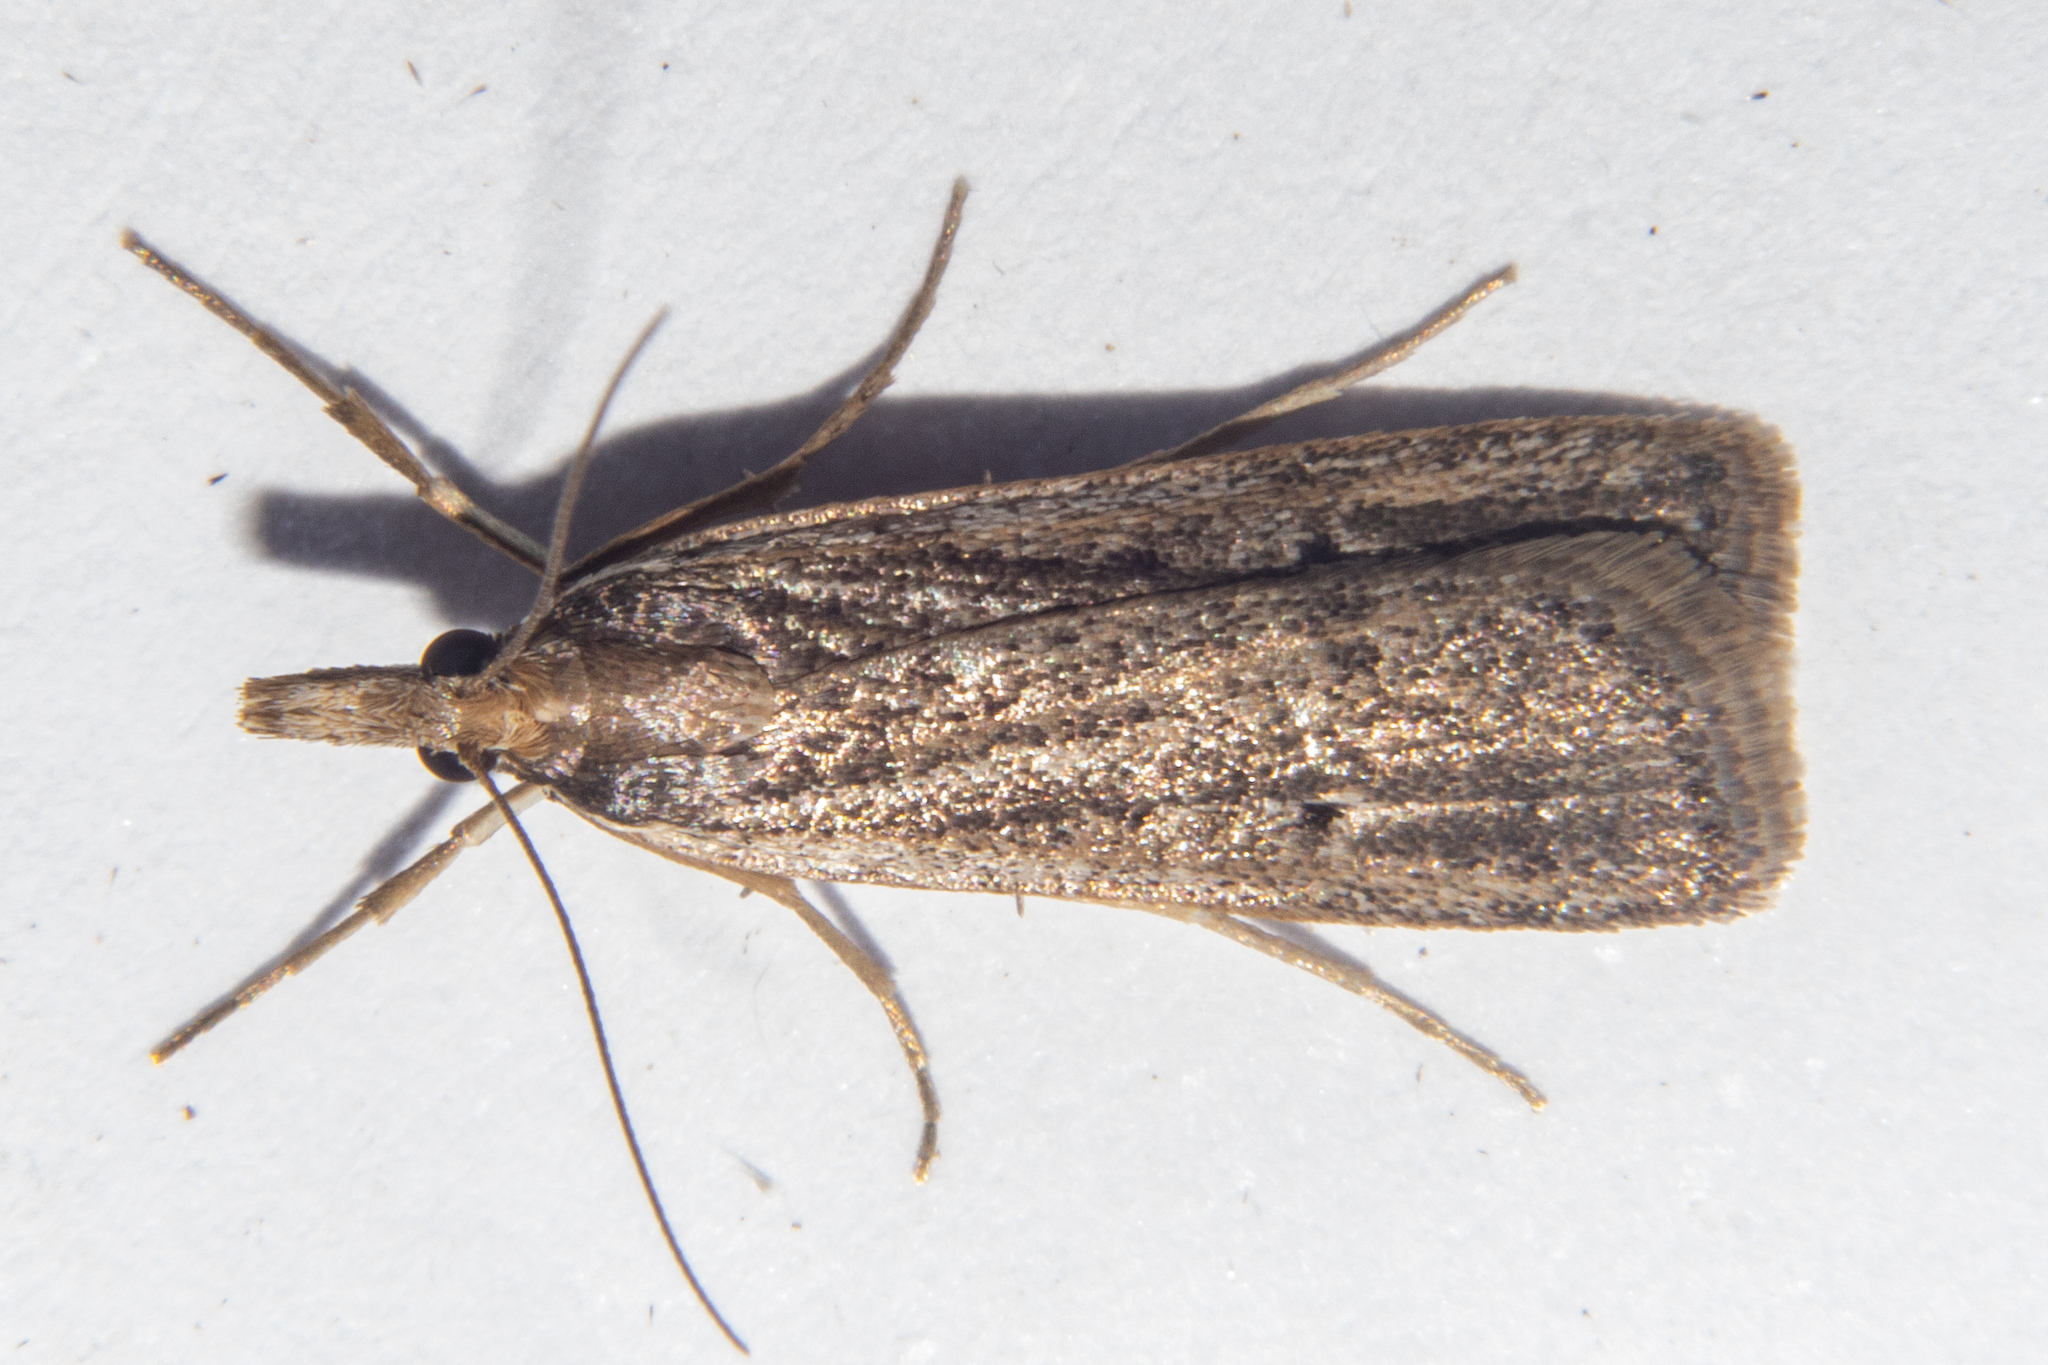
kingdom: Animalia
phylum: Arthropoda
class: Insecta
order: Lepidoptera
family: Crambidae
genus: Eudonia
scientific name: Eudonia sabulosella
